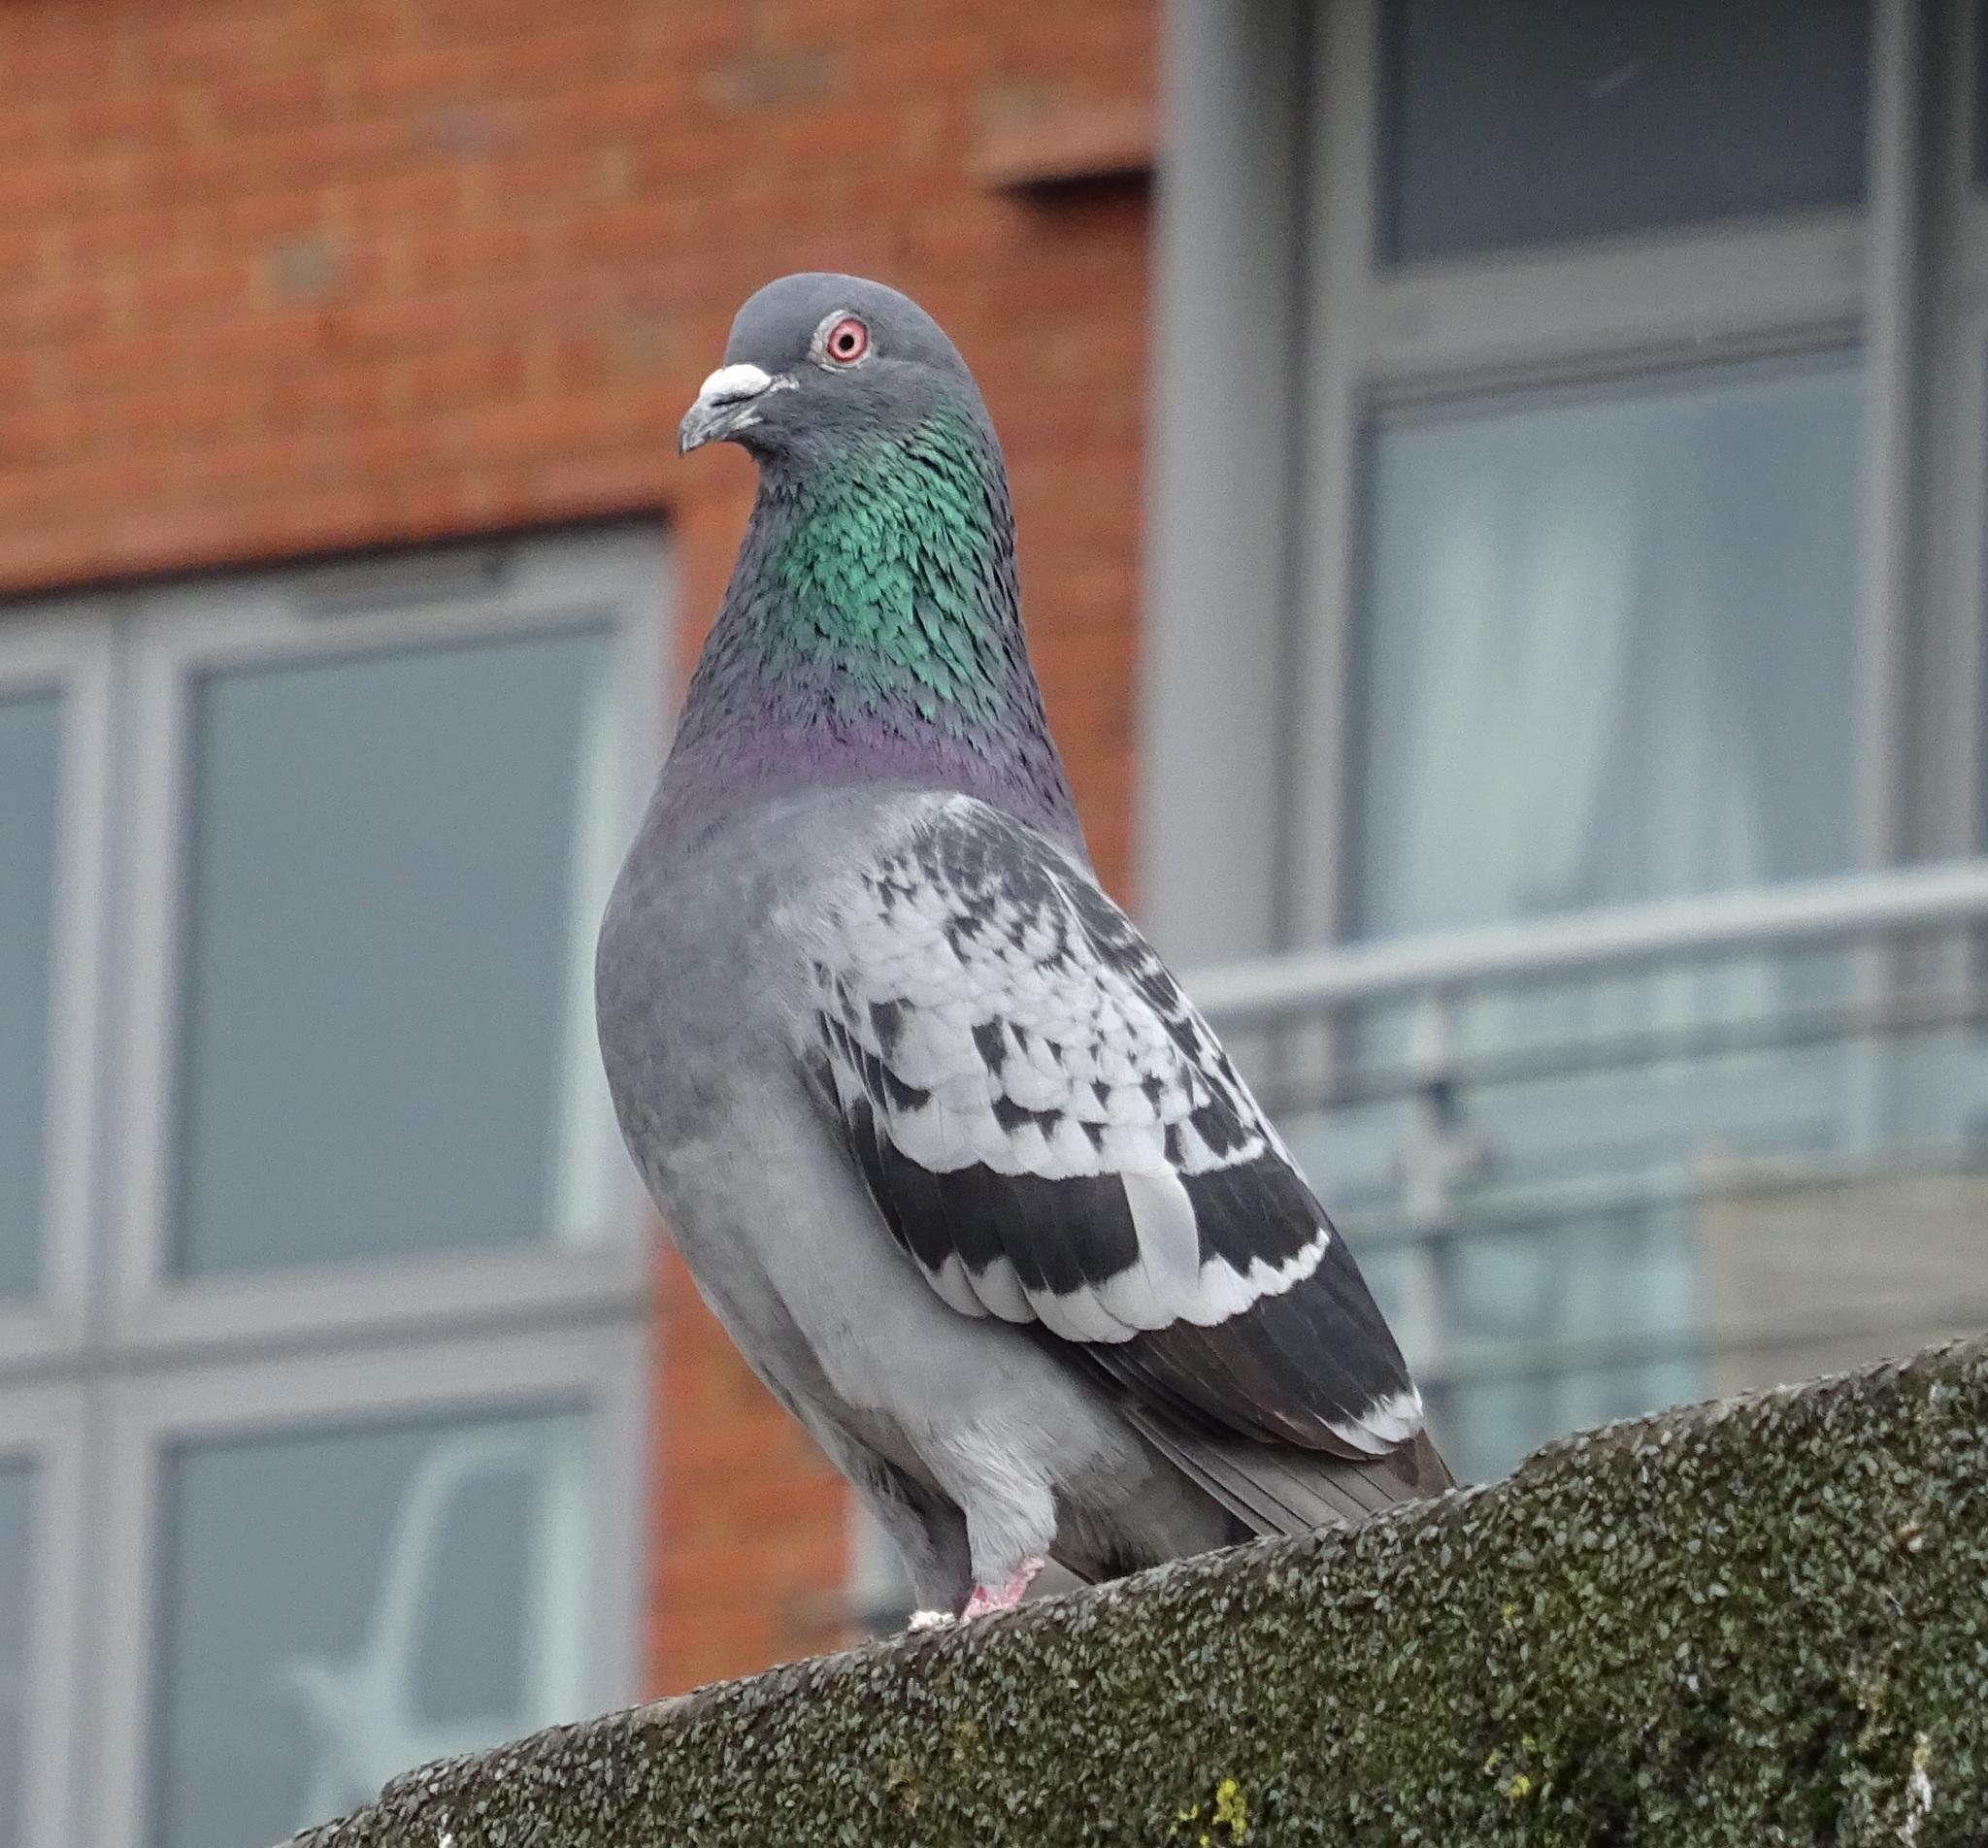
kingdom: Animalia
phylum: Chordata
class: Aves
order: Columbiformes
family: Columbidae
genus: Columba
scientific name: Columba livia
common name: Rock pigeon
